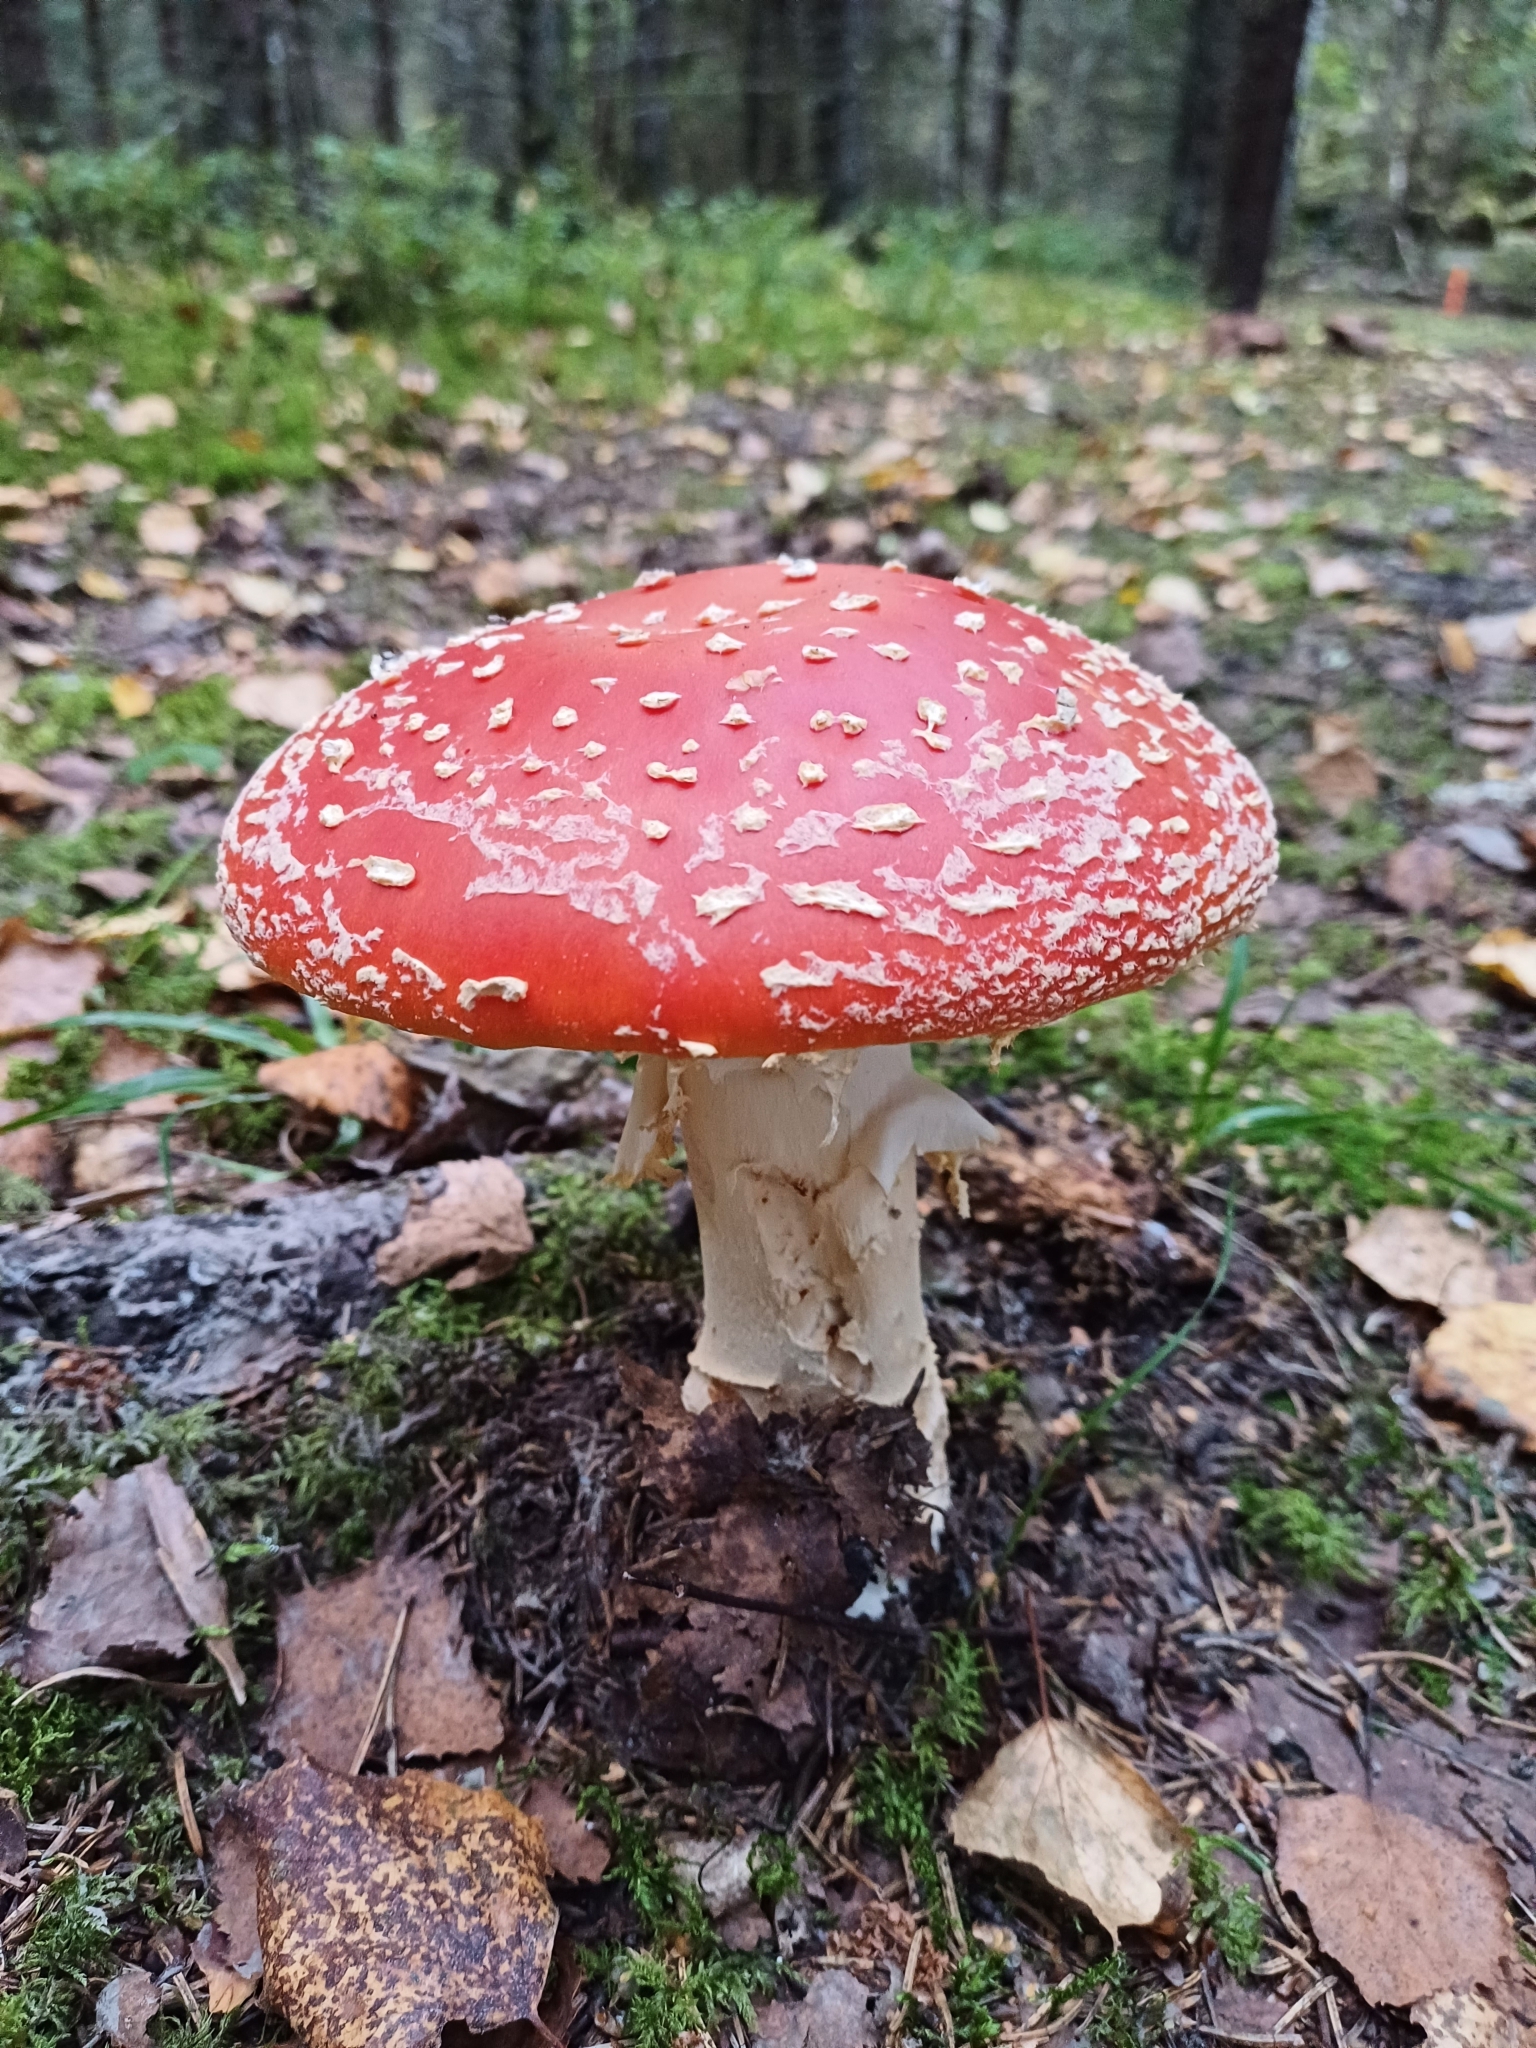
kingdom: Fungi
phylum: Basidiomycota
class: Agaricomycetes
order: Agaricales
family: Amanitaceae
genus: Amanita
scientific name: Amanita muscaria
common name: Fly agaric
